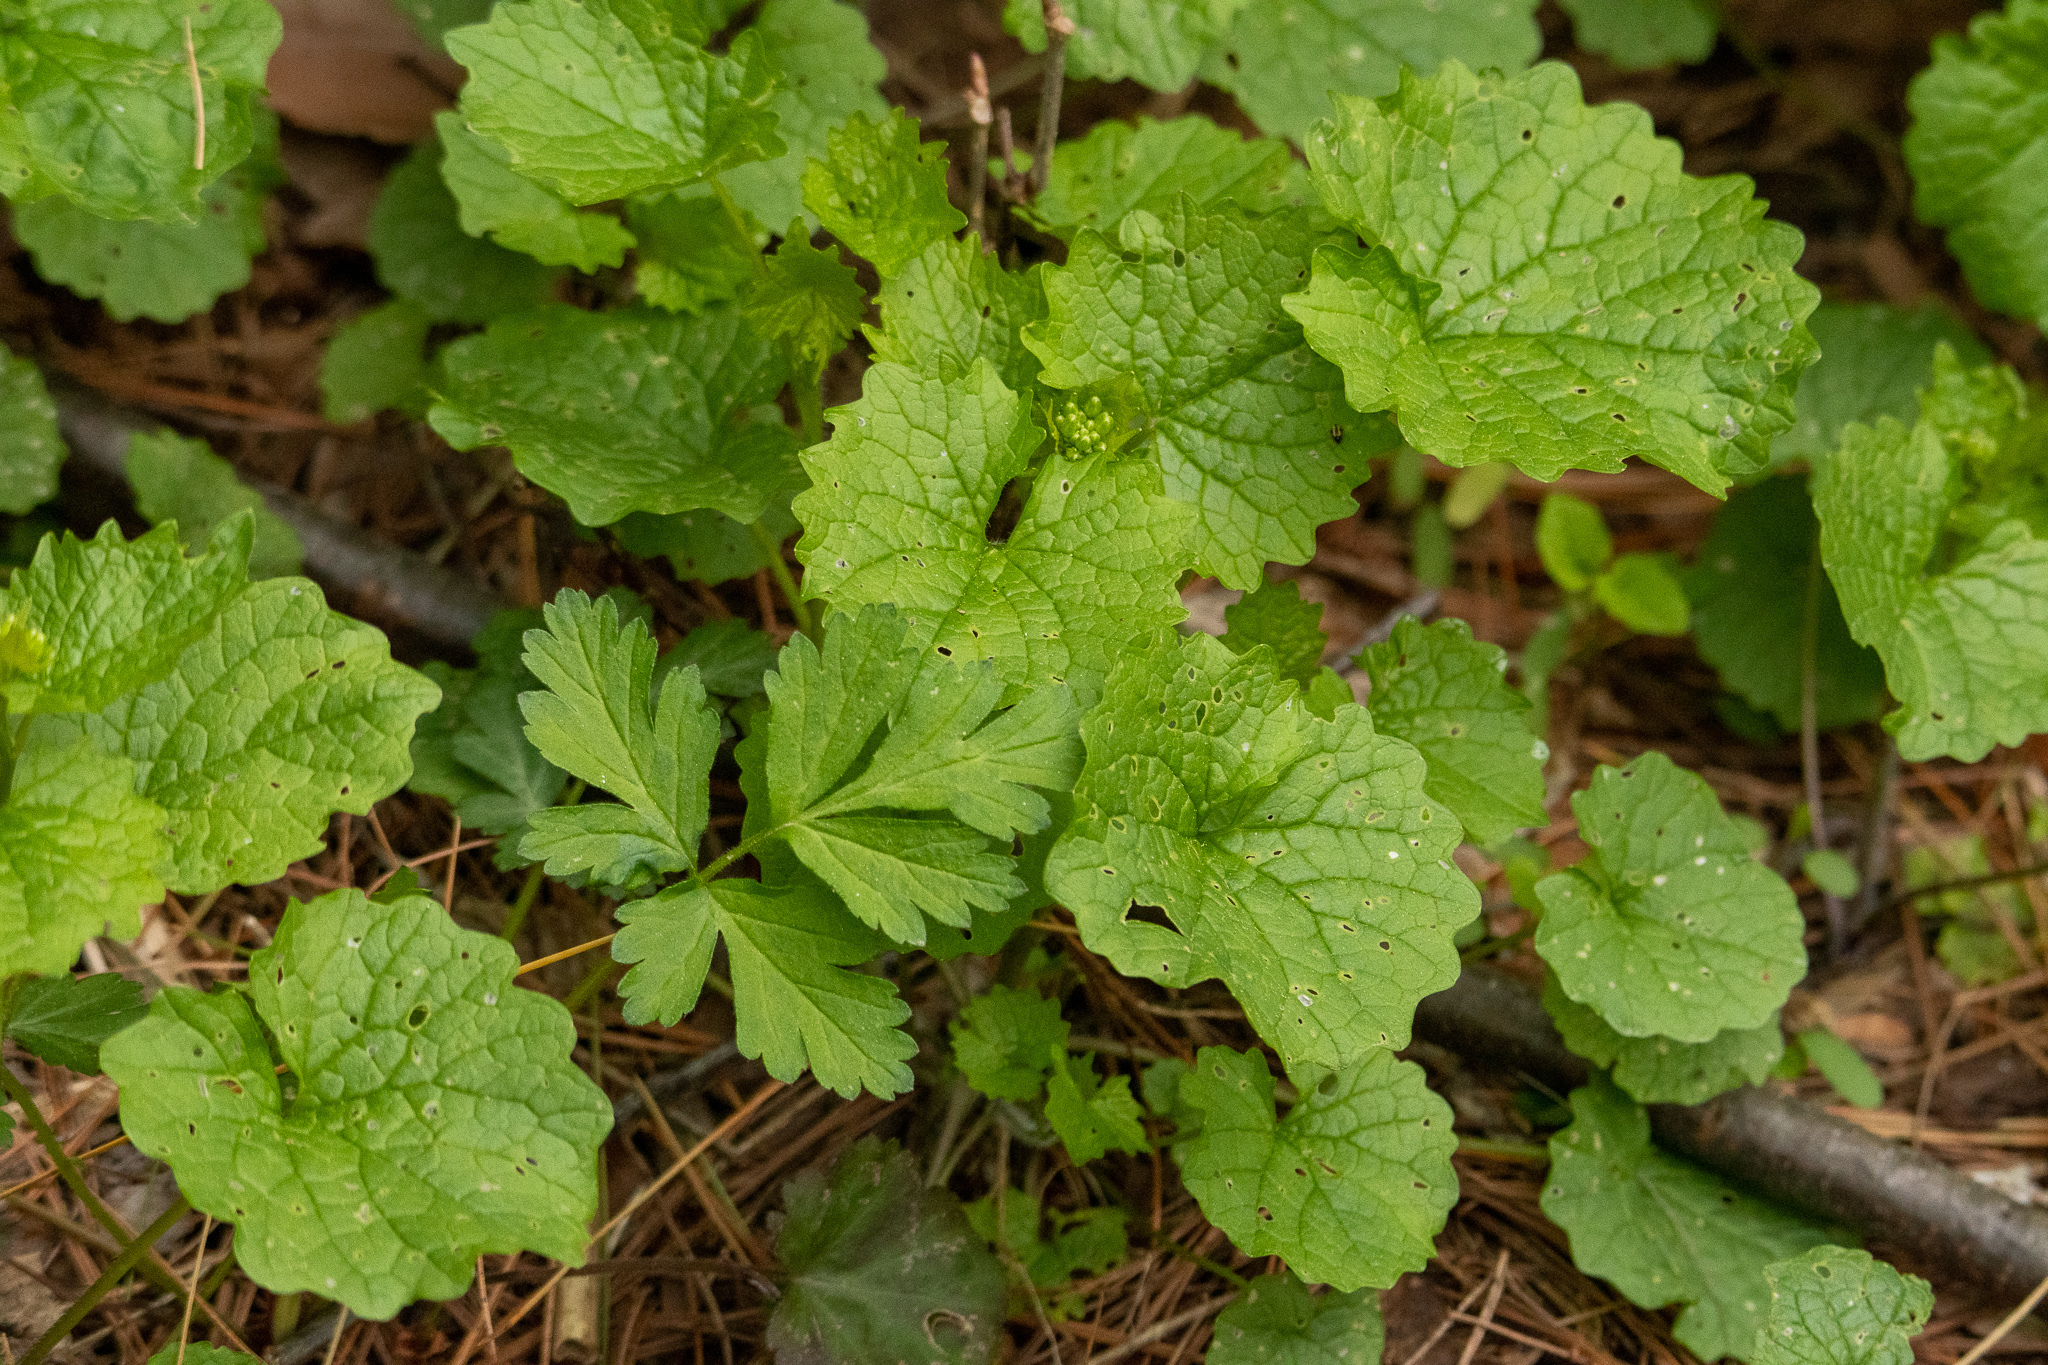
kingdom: Plantae
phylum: Tracheophyta
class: Magnoliopsida
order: Brassicales
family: Brassicaceae
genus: Alliaria
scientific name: Alliaria petiolata
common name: Garlic mustard
